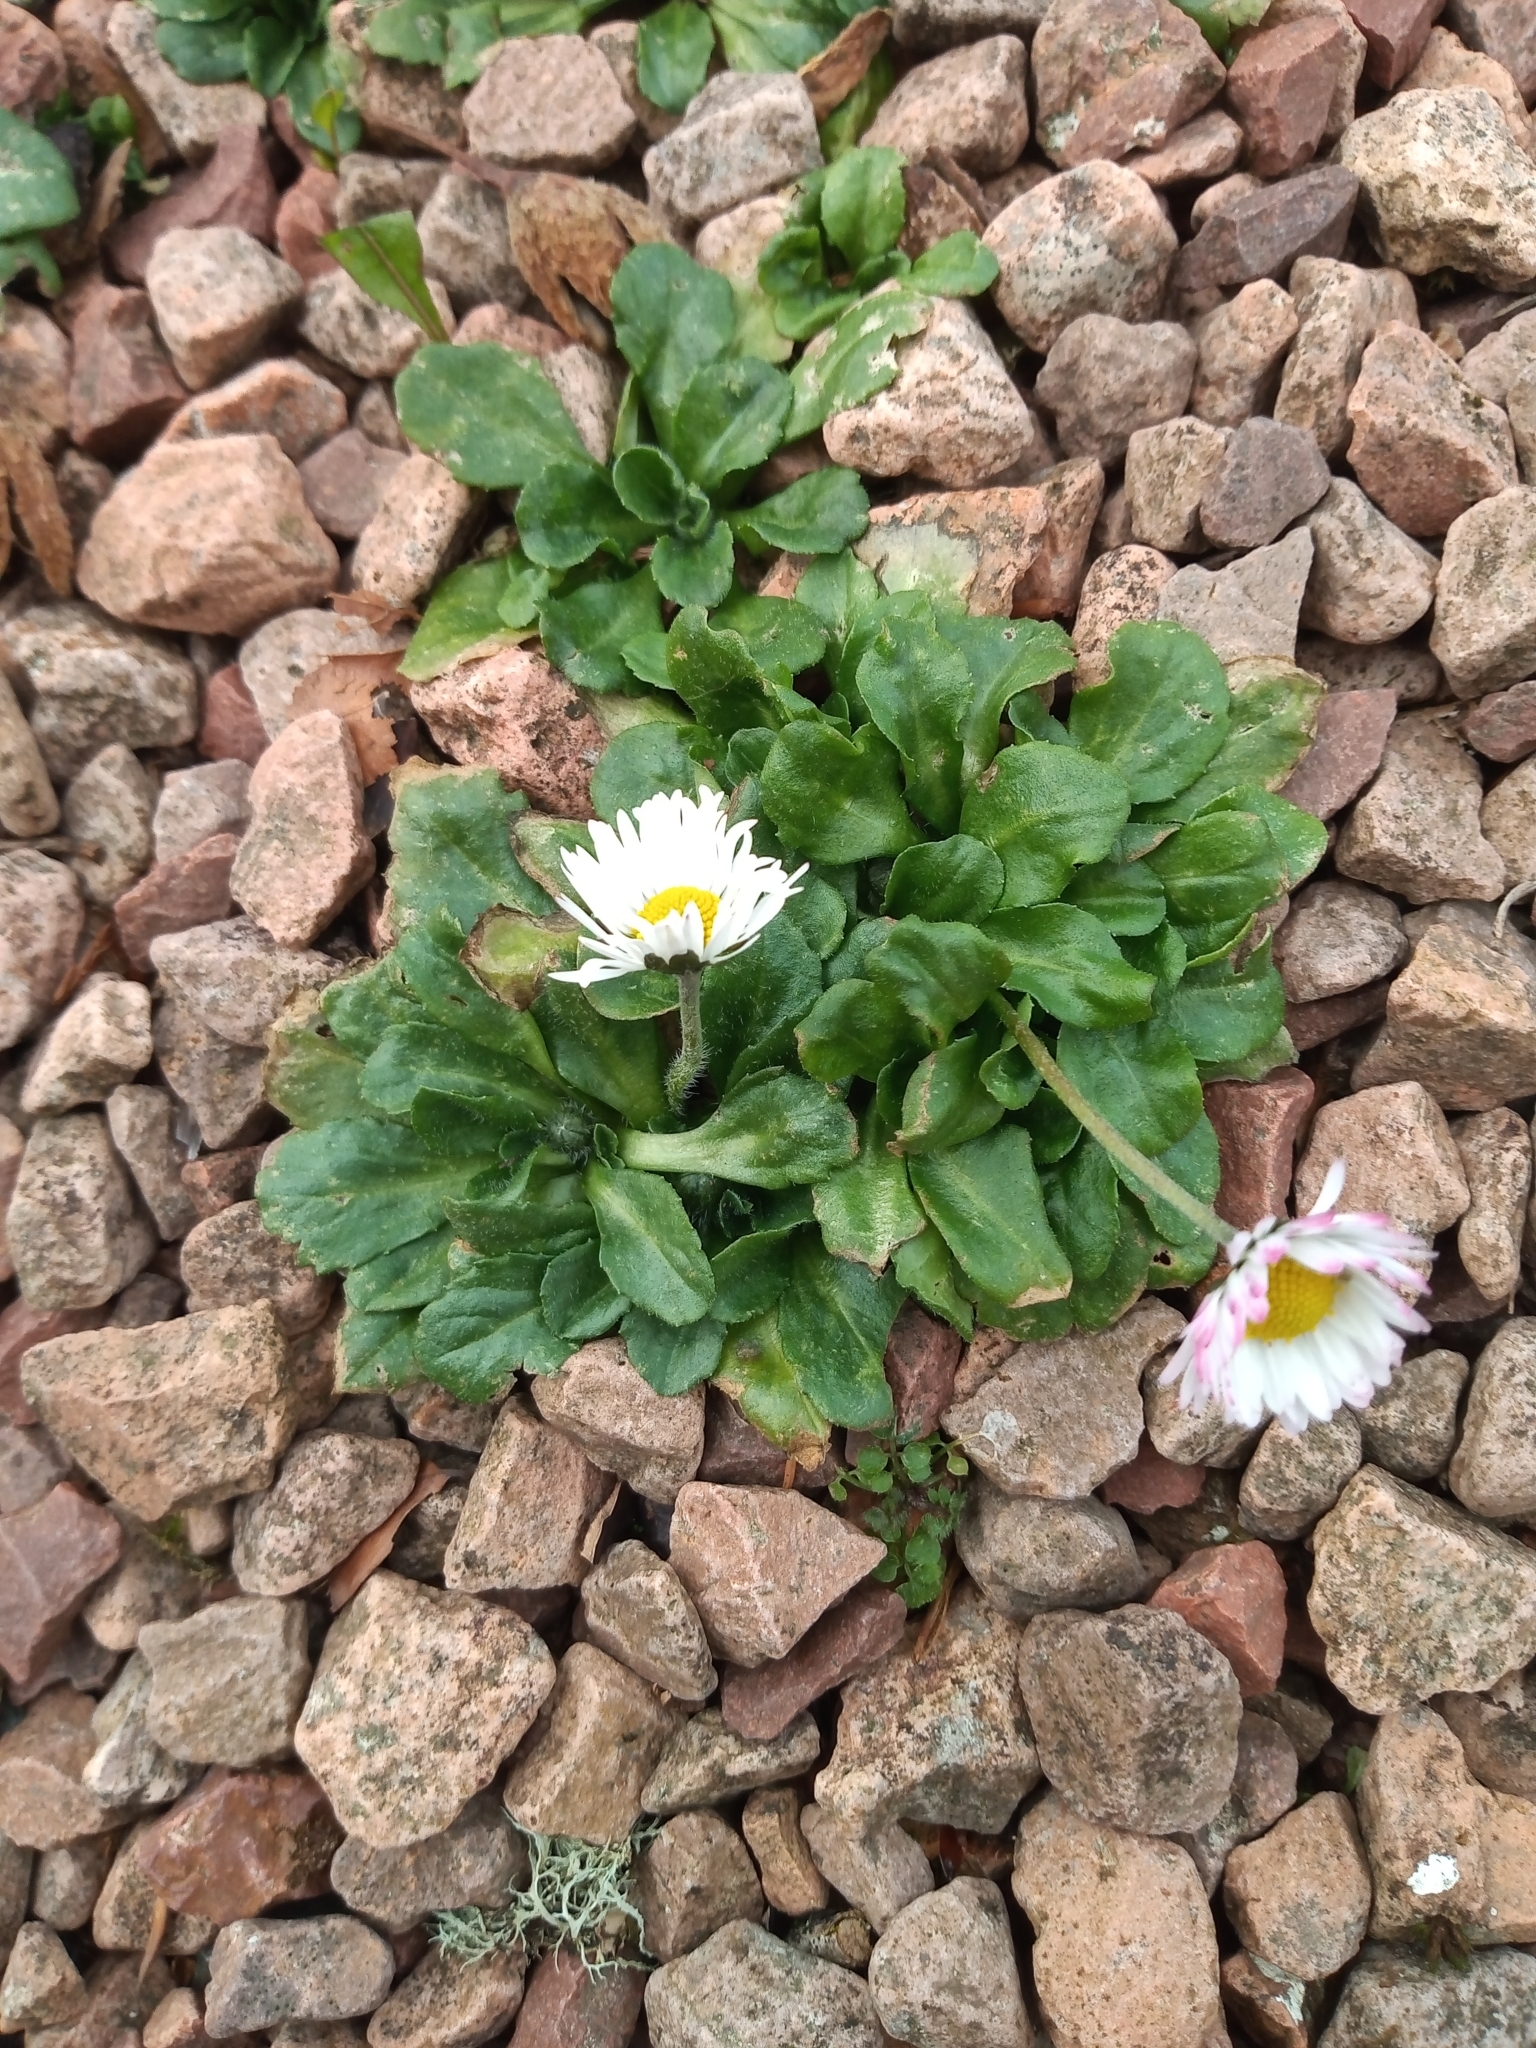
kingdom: Plantae
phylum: Tracheophyta
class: Magnoliopsida
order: Asterales
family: Asteraceae
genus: Bellis
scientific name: Bellis perennis
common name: Lawndaisy
